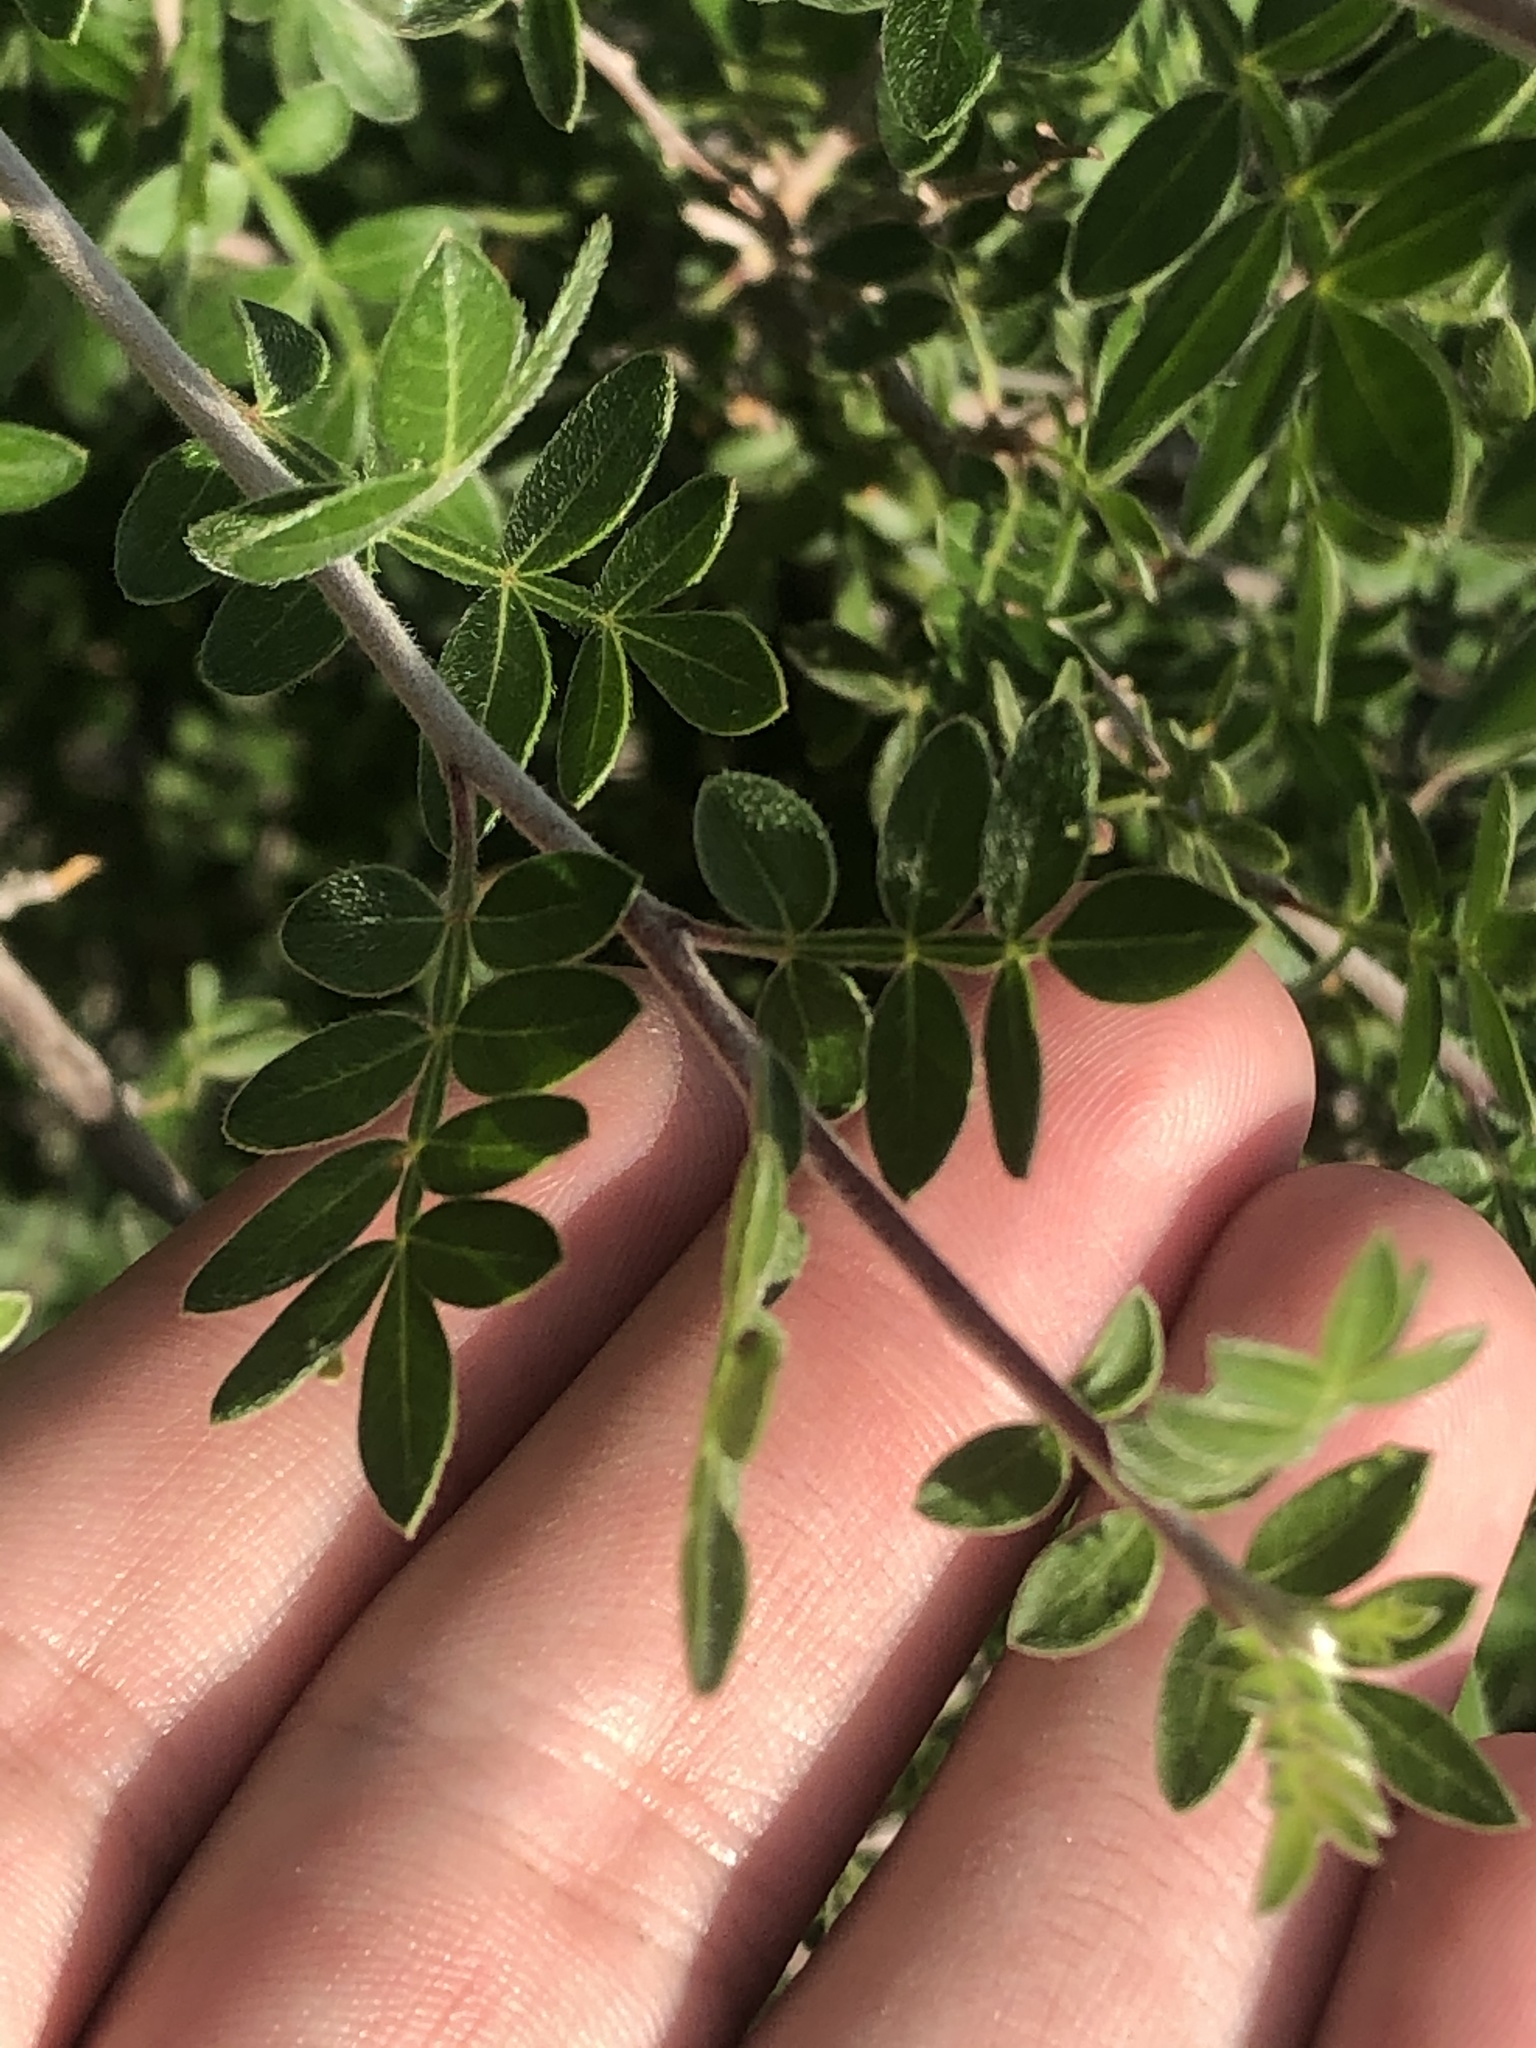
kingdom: Plantae
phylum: Tracheophyta
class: Magnoliopsida
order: Sapindales
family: Anacardiaceae
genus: Rhus
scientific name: Rhus microphylla
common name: Desert sumac
